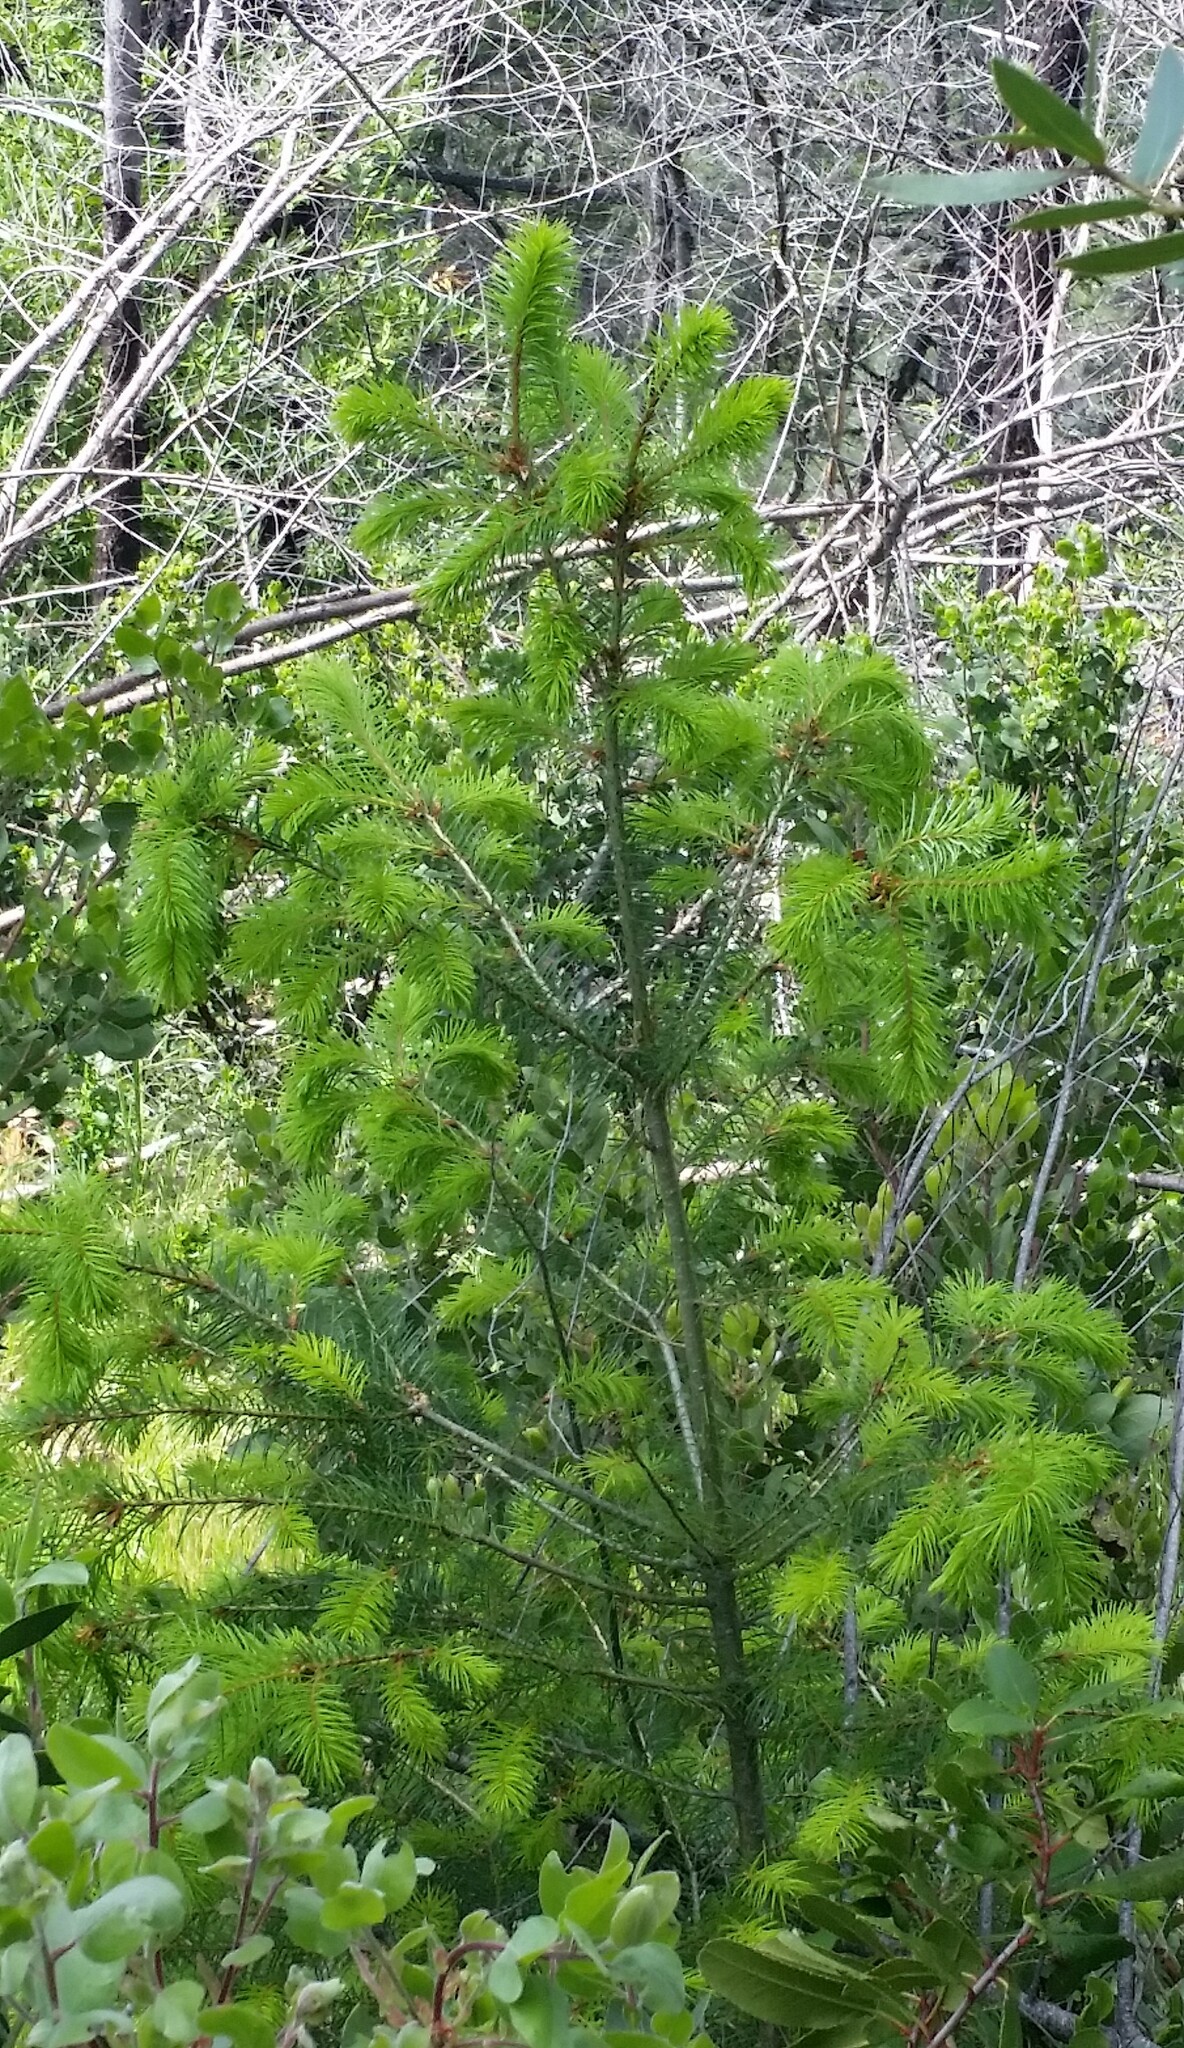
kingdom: Plantae
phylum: Tracheophyta
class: Pinopsida
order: Pinales
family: Pinaceae
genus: Pseudotsuga
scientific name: Pseudotsuga menziesii
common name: Douglas fir
